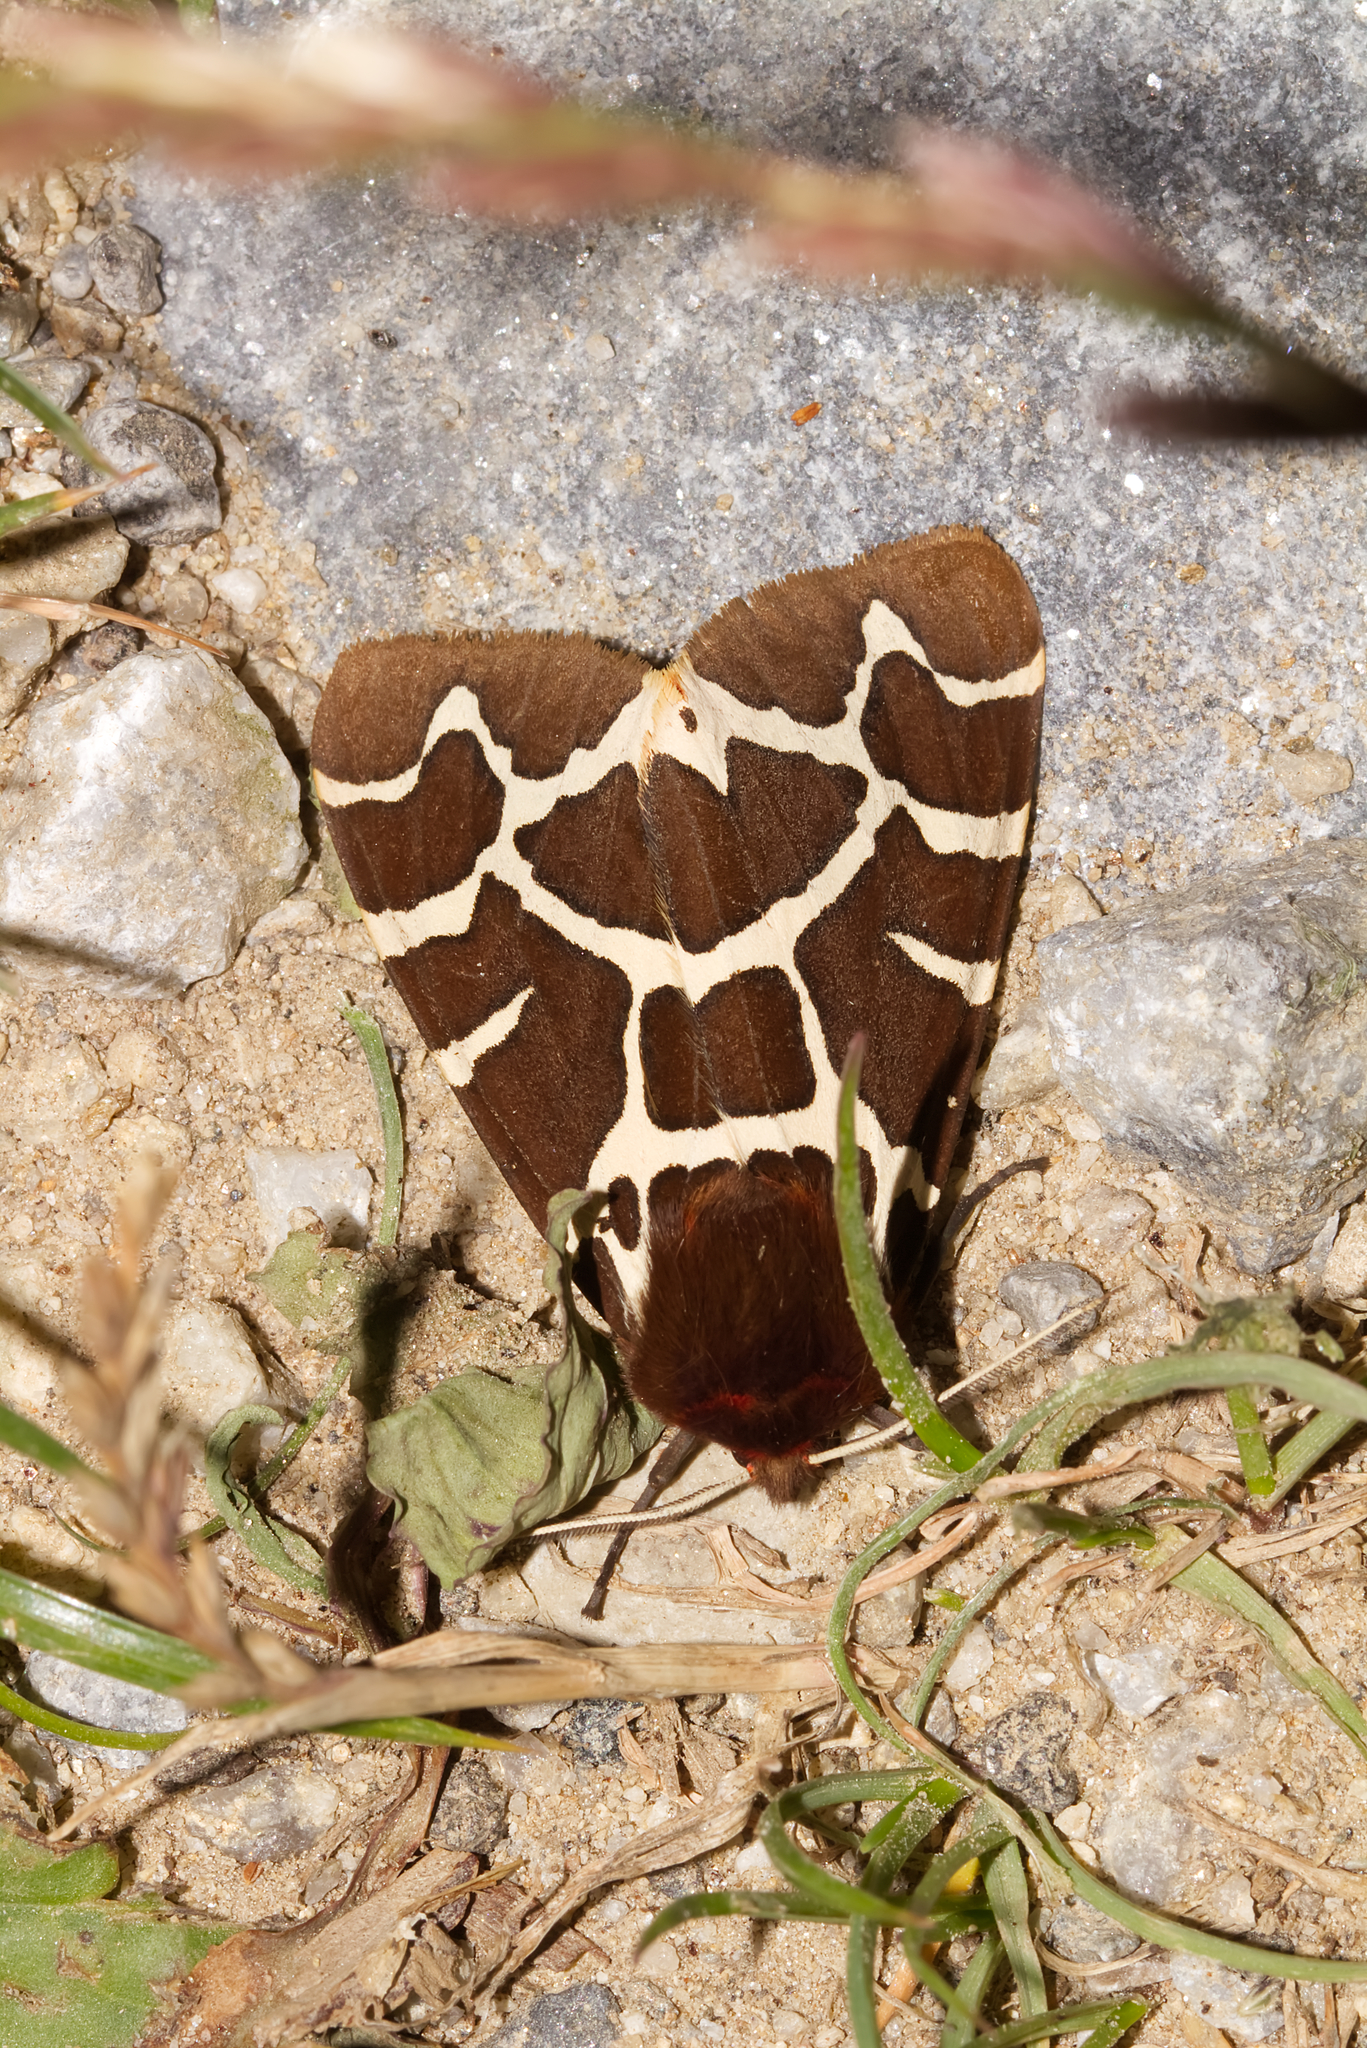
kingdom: Animalia
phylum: Arthropoda
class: Insecta
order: Lepidoptera
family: Erebidae
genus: Arctia
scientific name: Arctia caja
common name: Garden tiger
